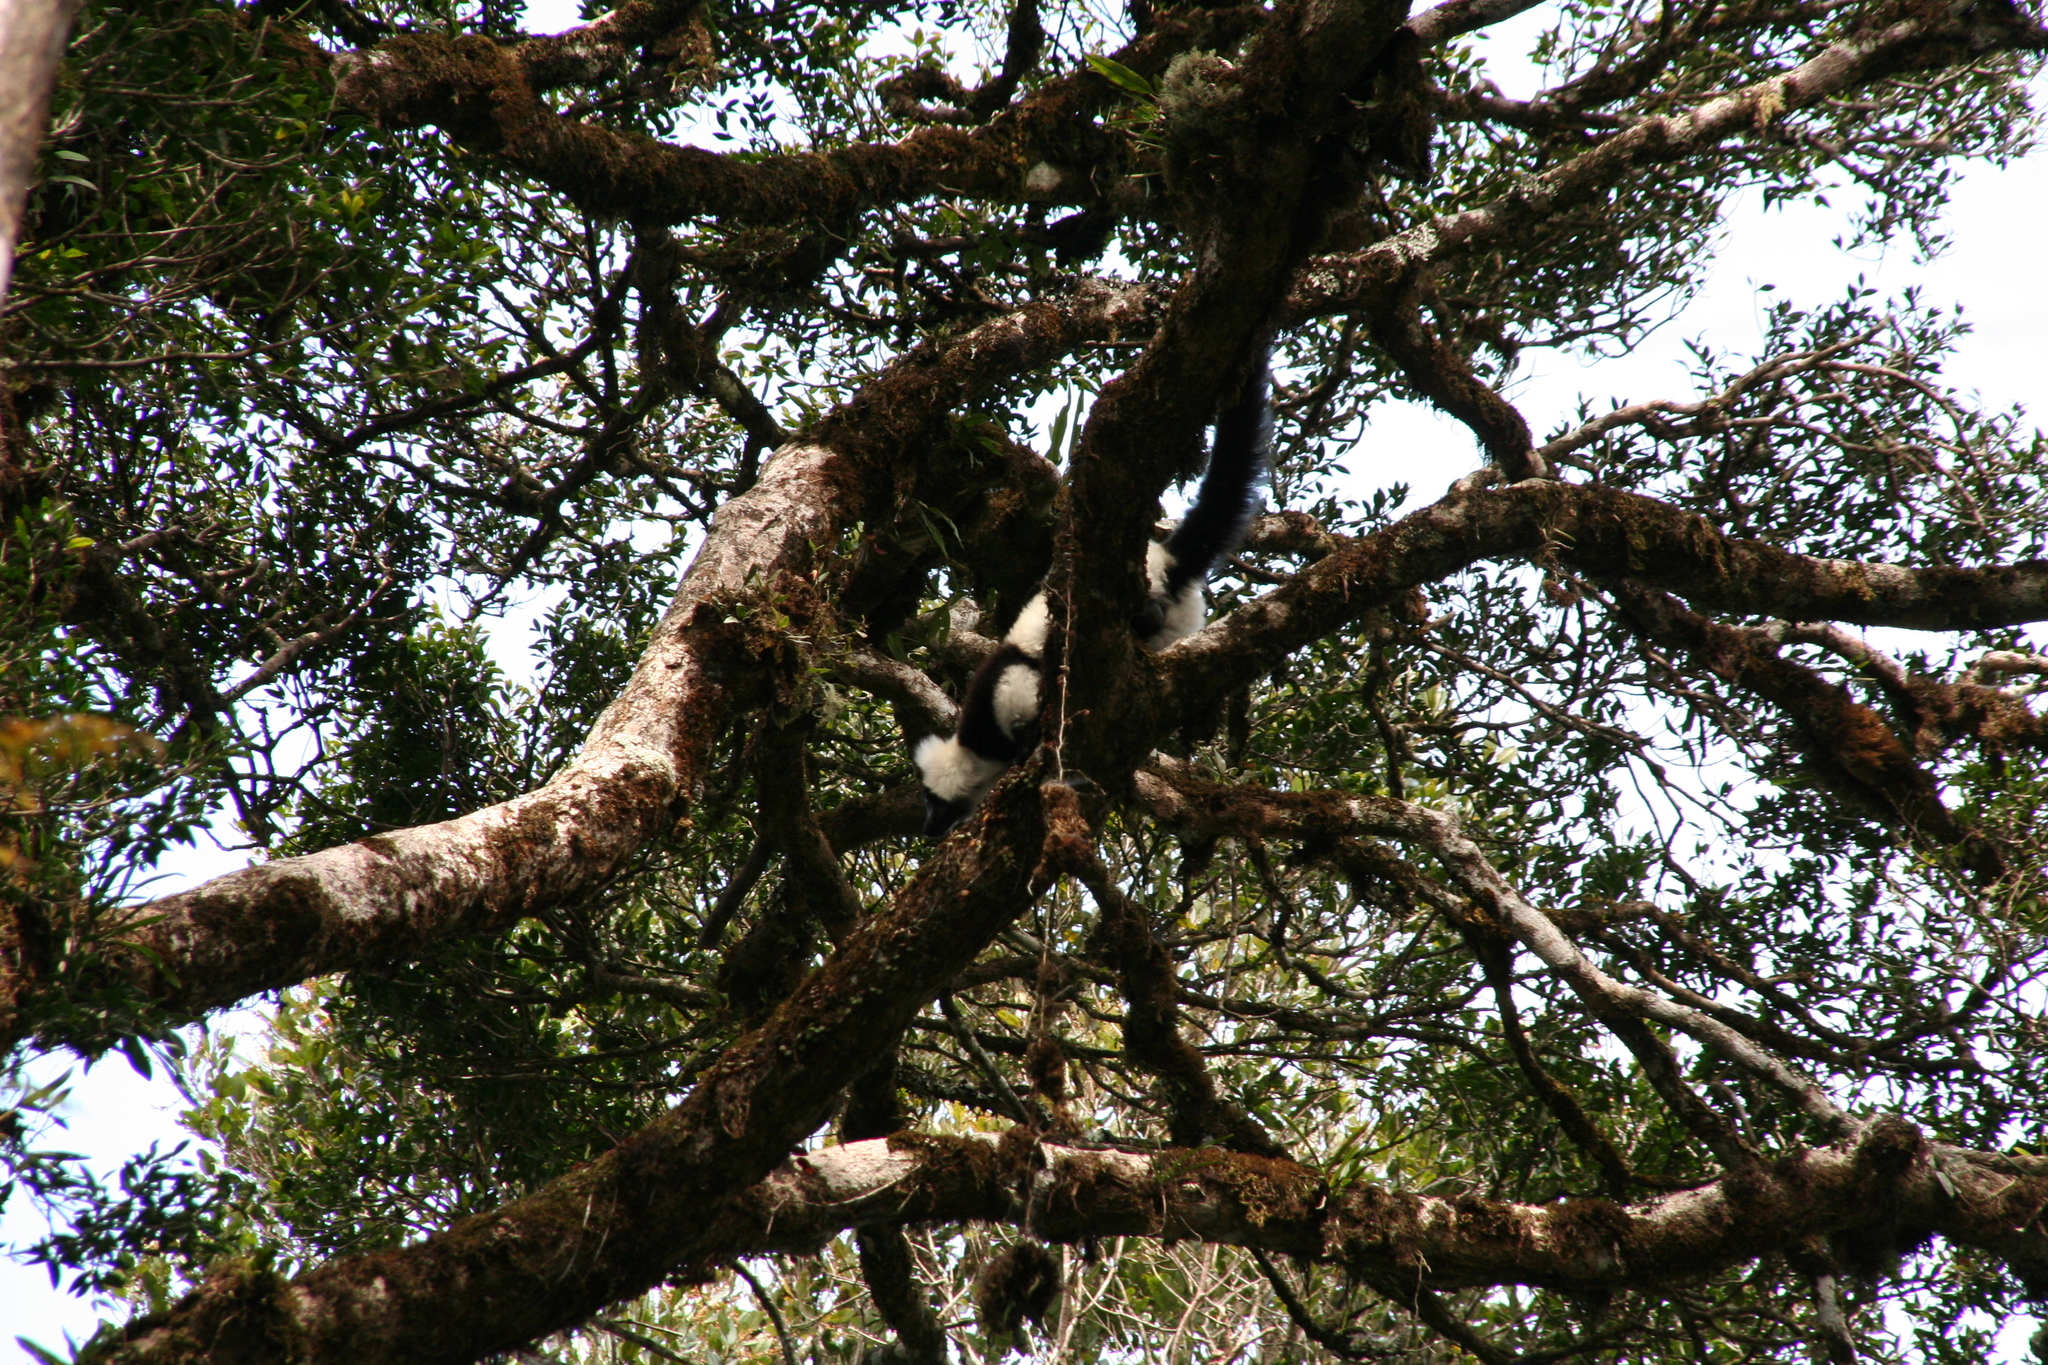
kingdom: Animalia
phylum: Chordata
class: Mammalia
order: Primates
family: Lemuridae
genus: Varecia
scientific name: Varecia variegata
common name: Black-and-white ruffed lemur
